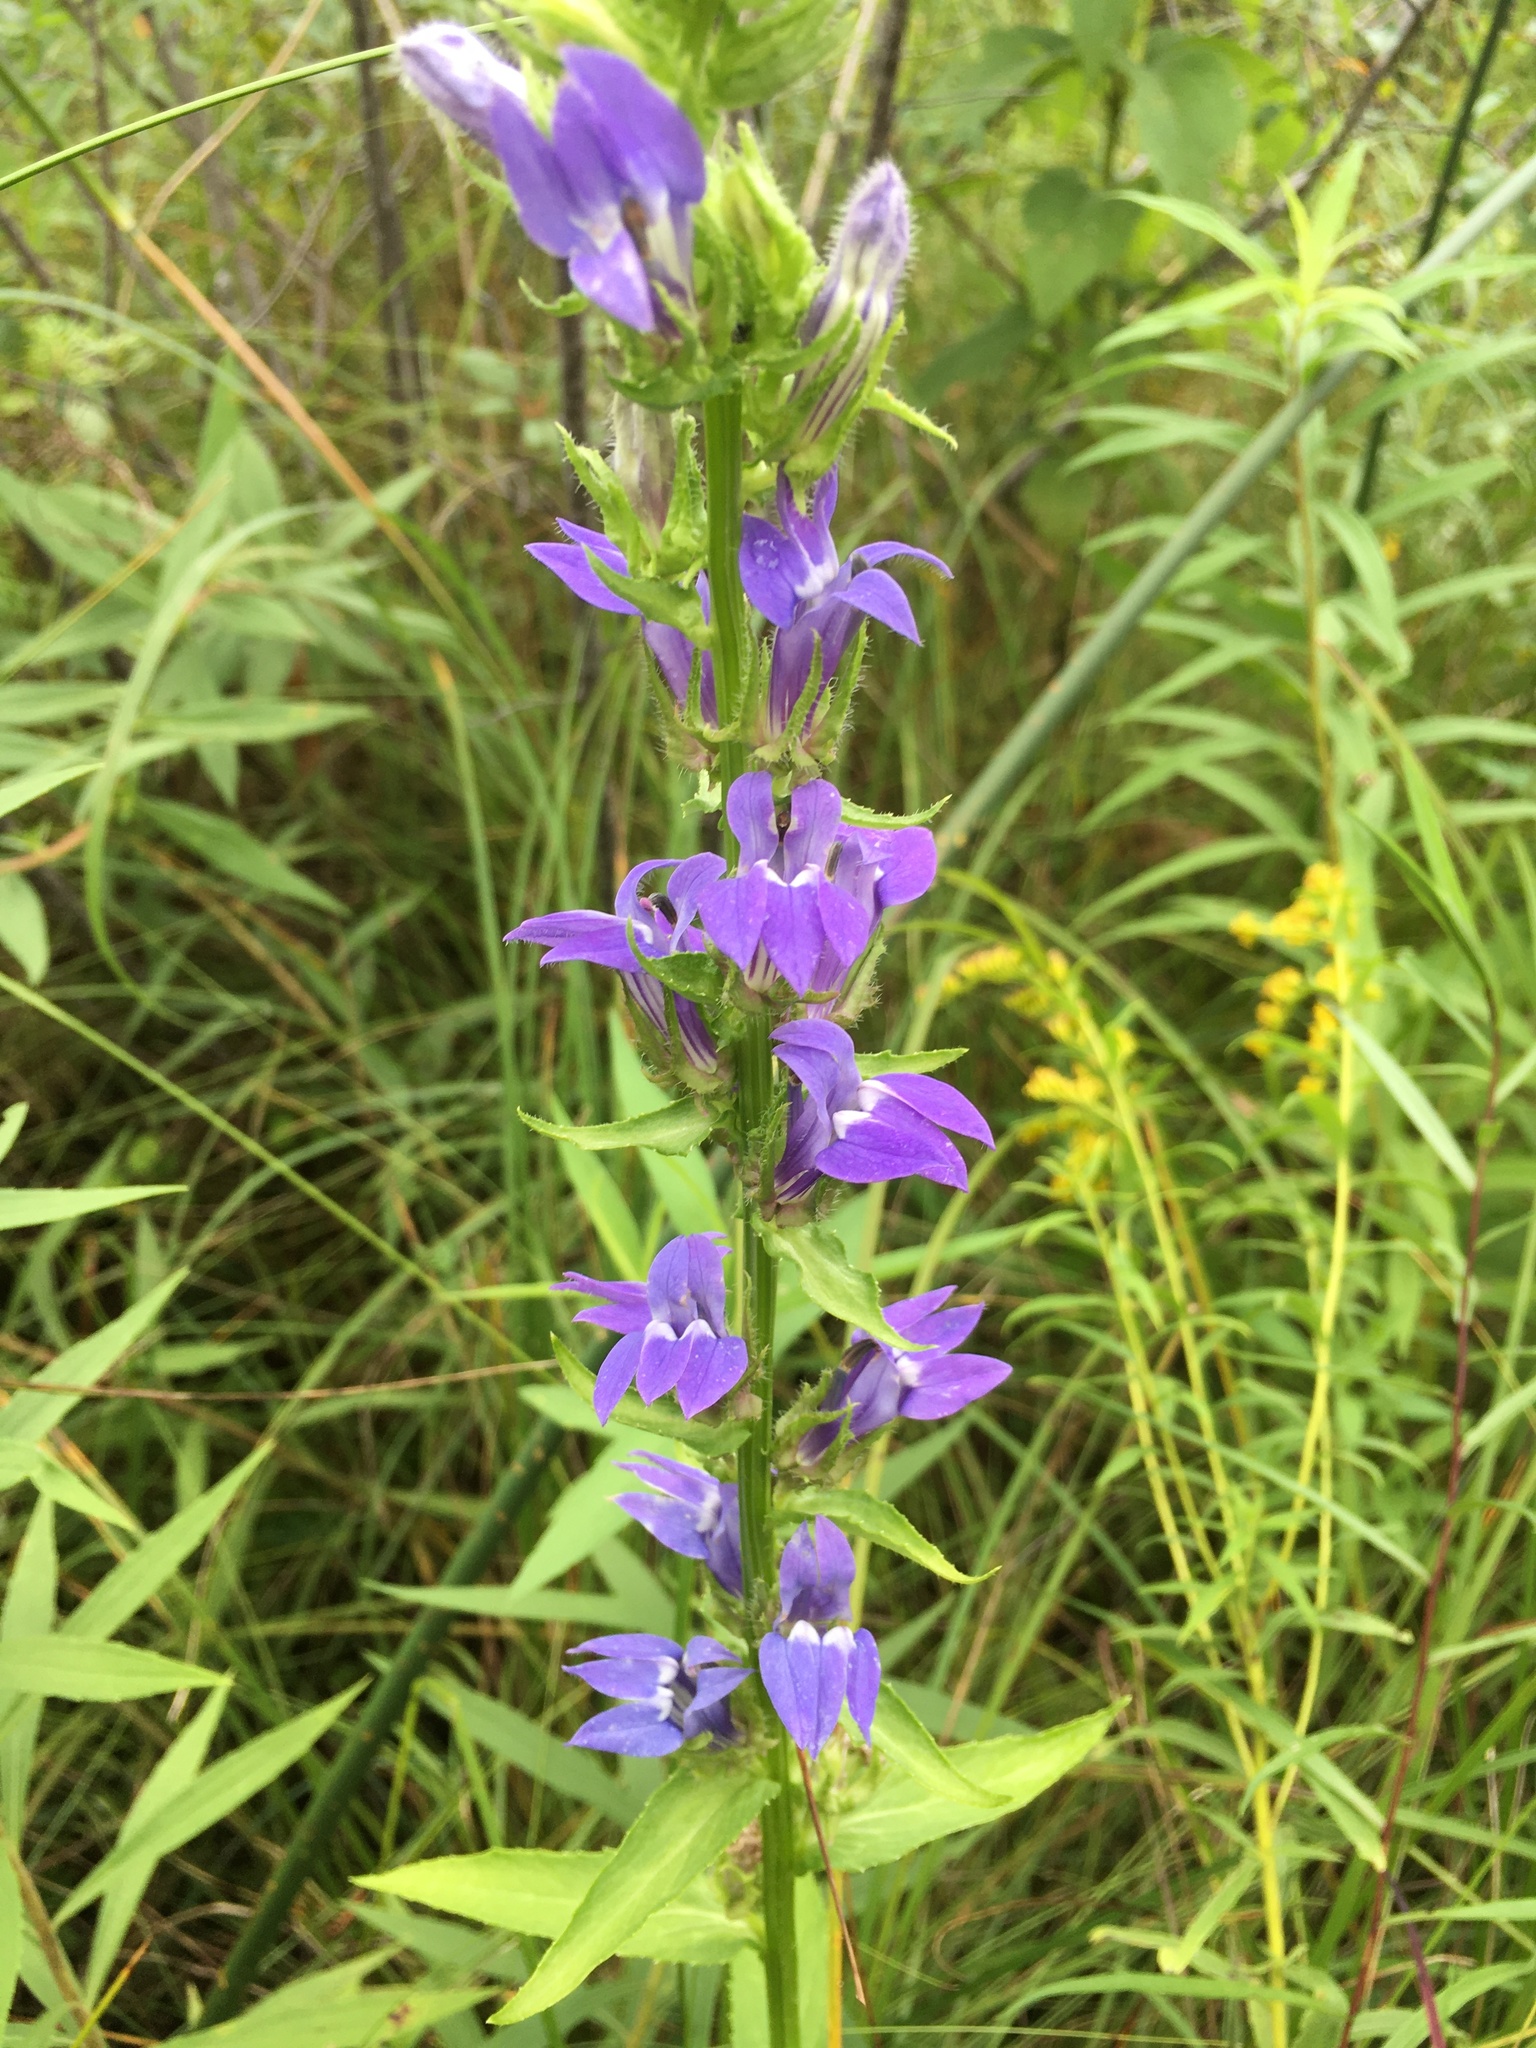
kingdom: Plantae
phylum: Tracheophyta
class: Magnoliopsida
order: Asterales
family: Campanulaceae
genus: Lobelia
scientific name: Lobelia siphilitica
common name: Great lobelia
